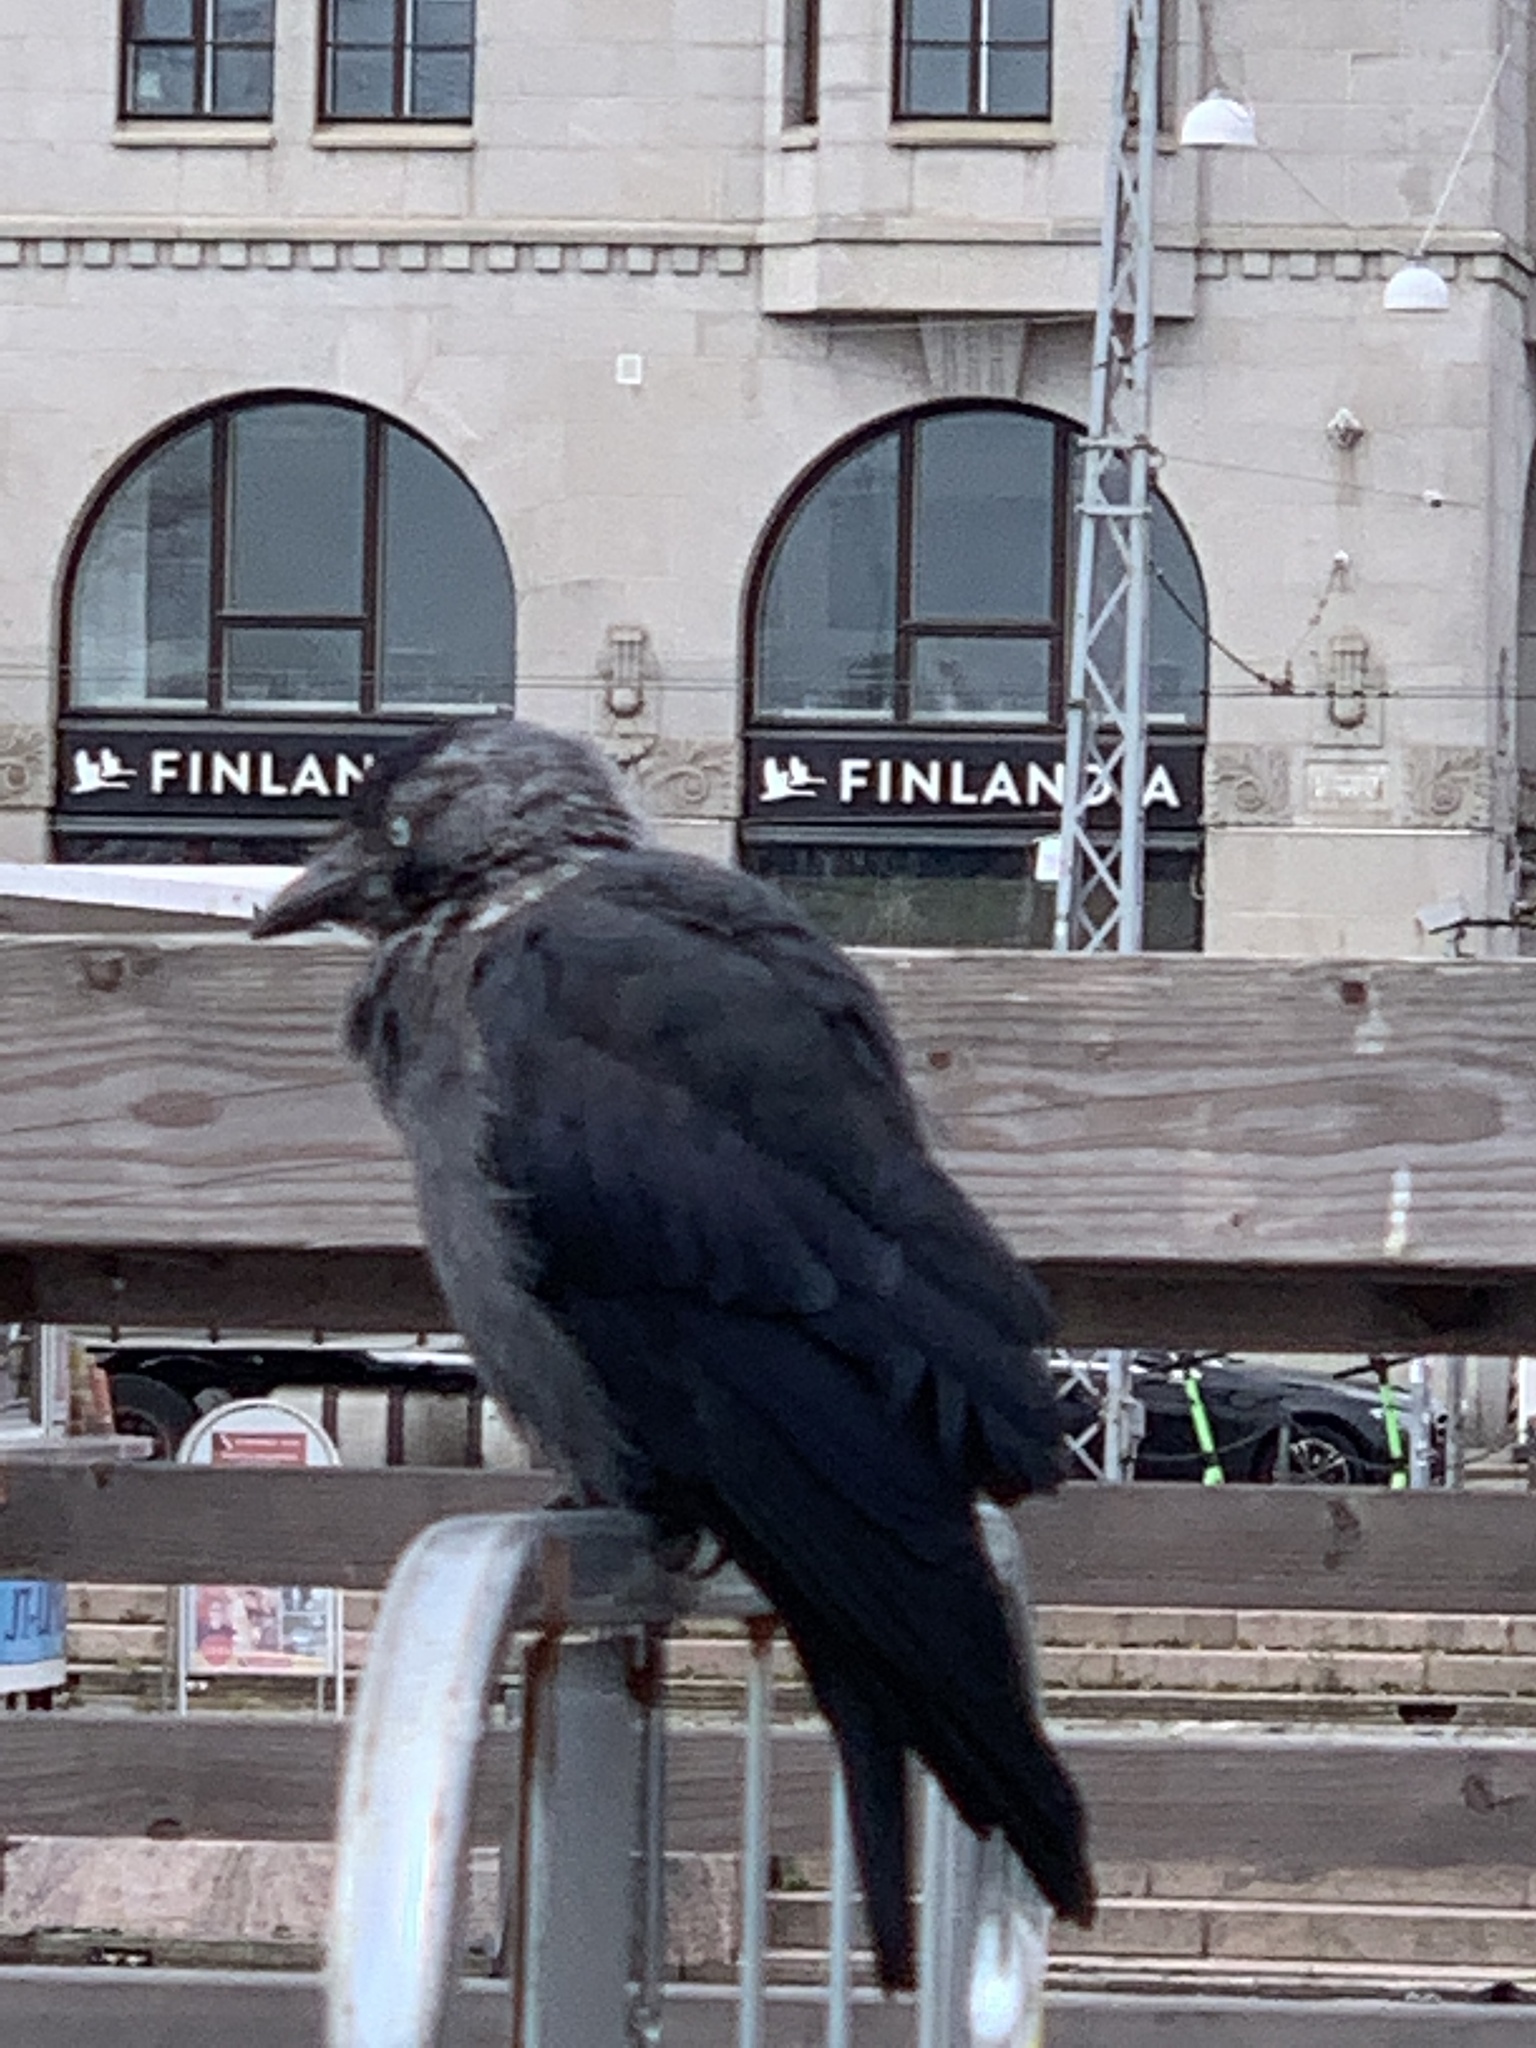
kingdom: Animalia
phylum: Chordata
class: Aves
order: Passeriformes
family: Corvidae
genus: Coloeus
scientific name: Coloeus monedula
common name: Western jackdaw
